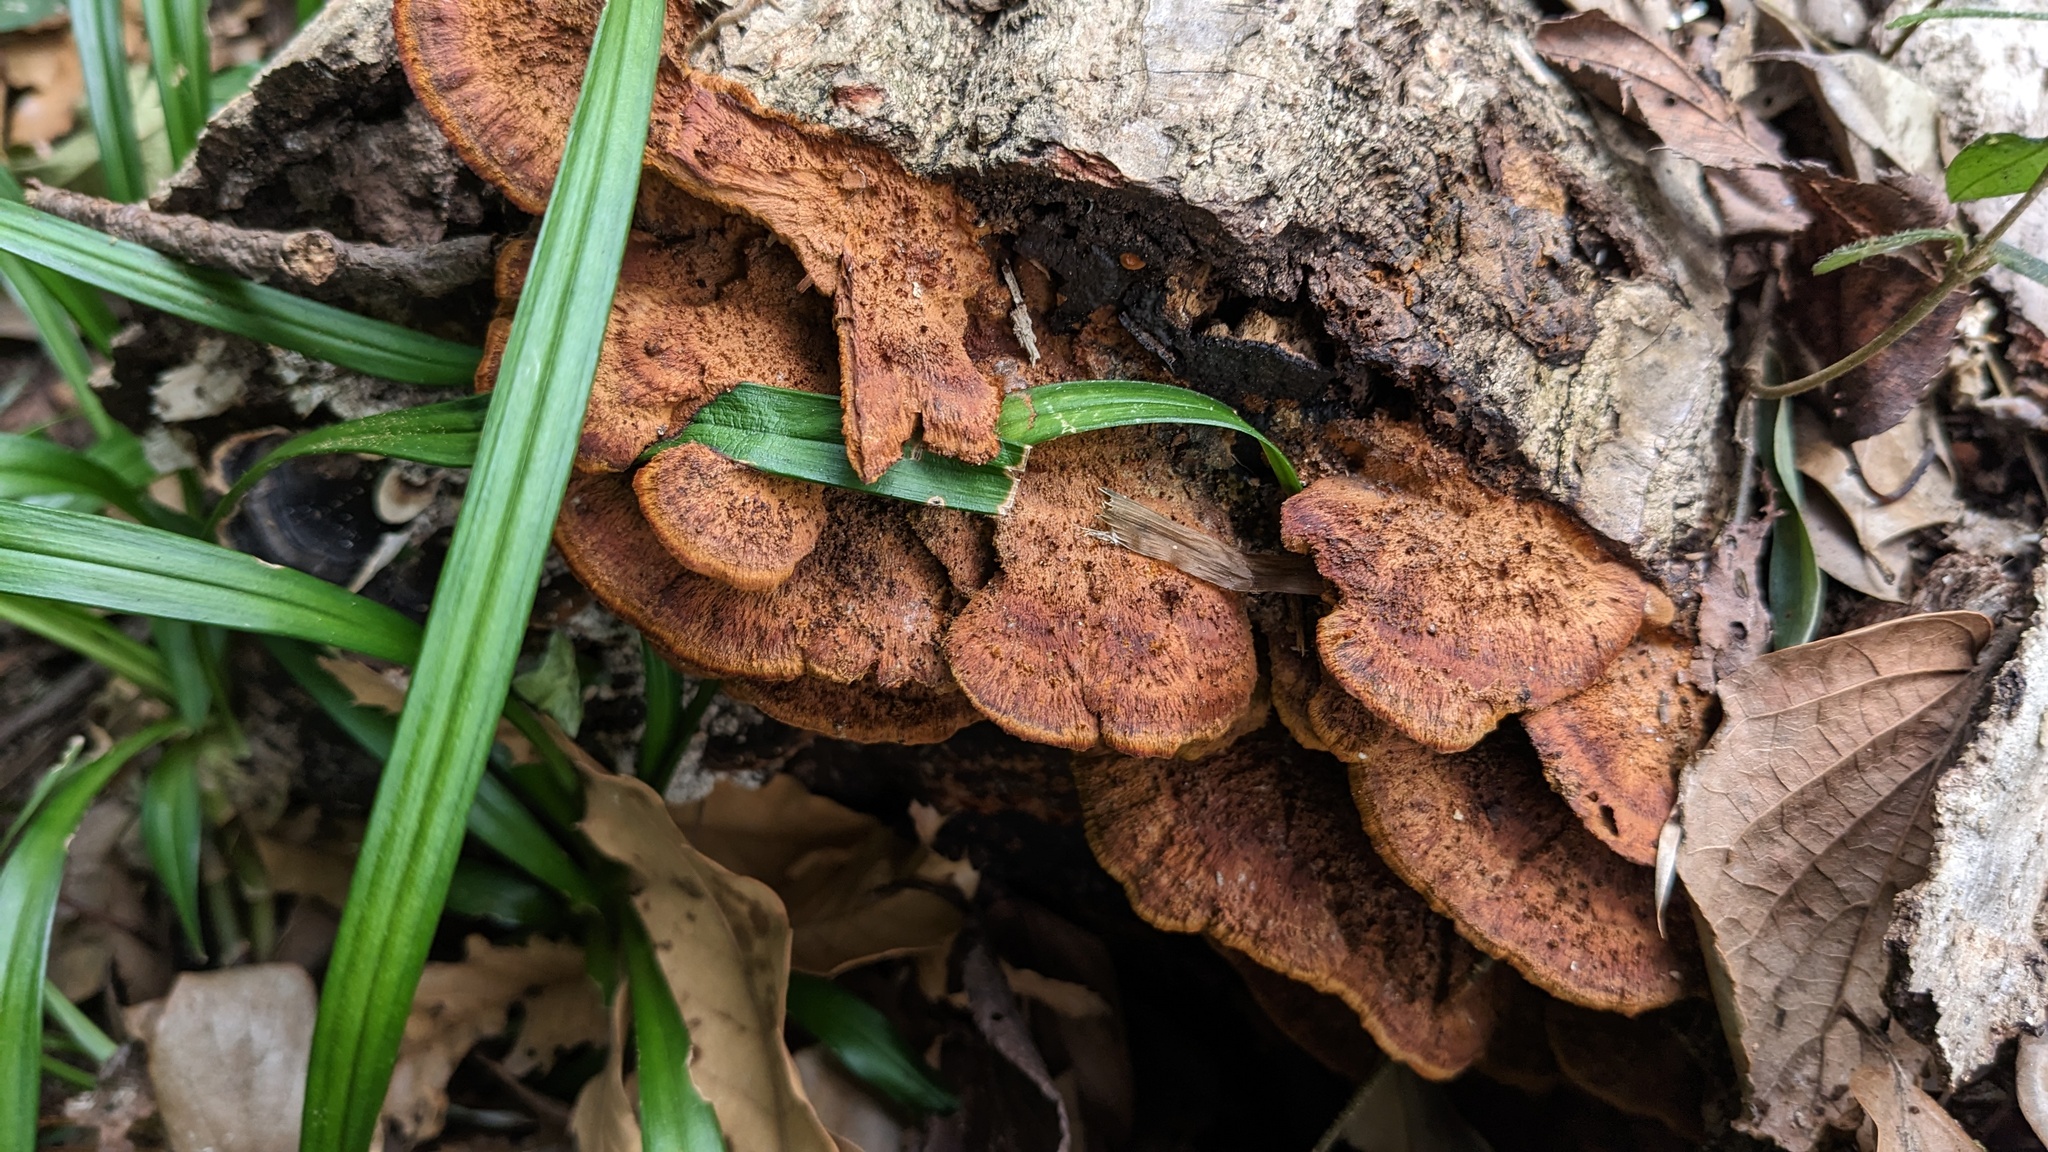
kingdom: Fungi
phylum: Basidiomycota
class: Agaricomycetes
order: Hymenochaetales
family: Hymenochaetaceae
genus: Phellinus
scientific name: Phellinus gilvus
